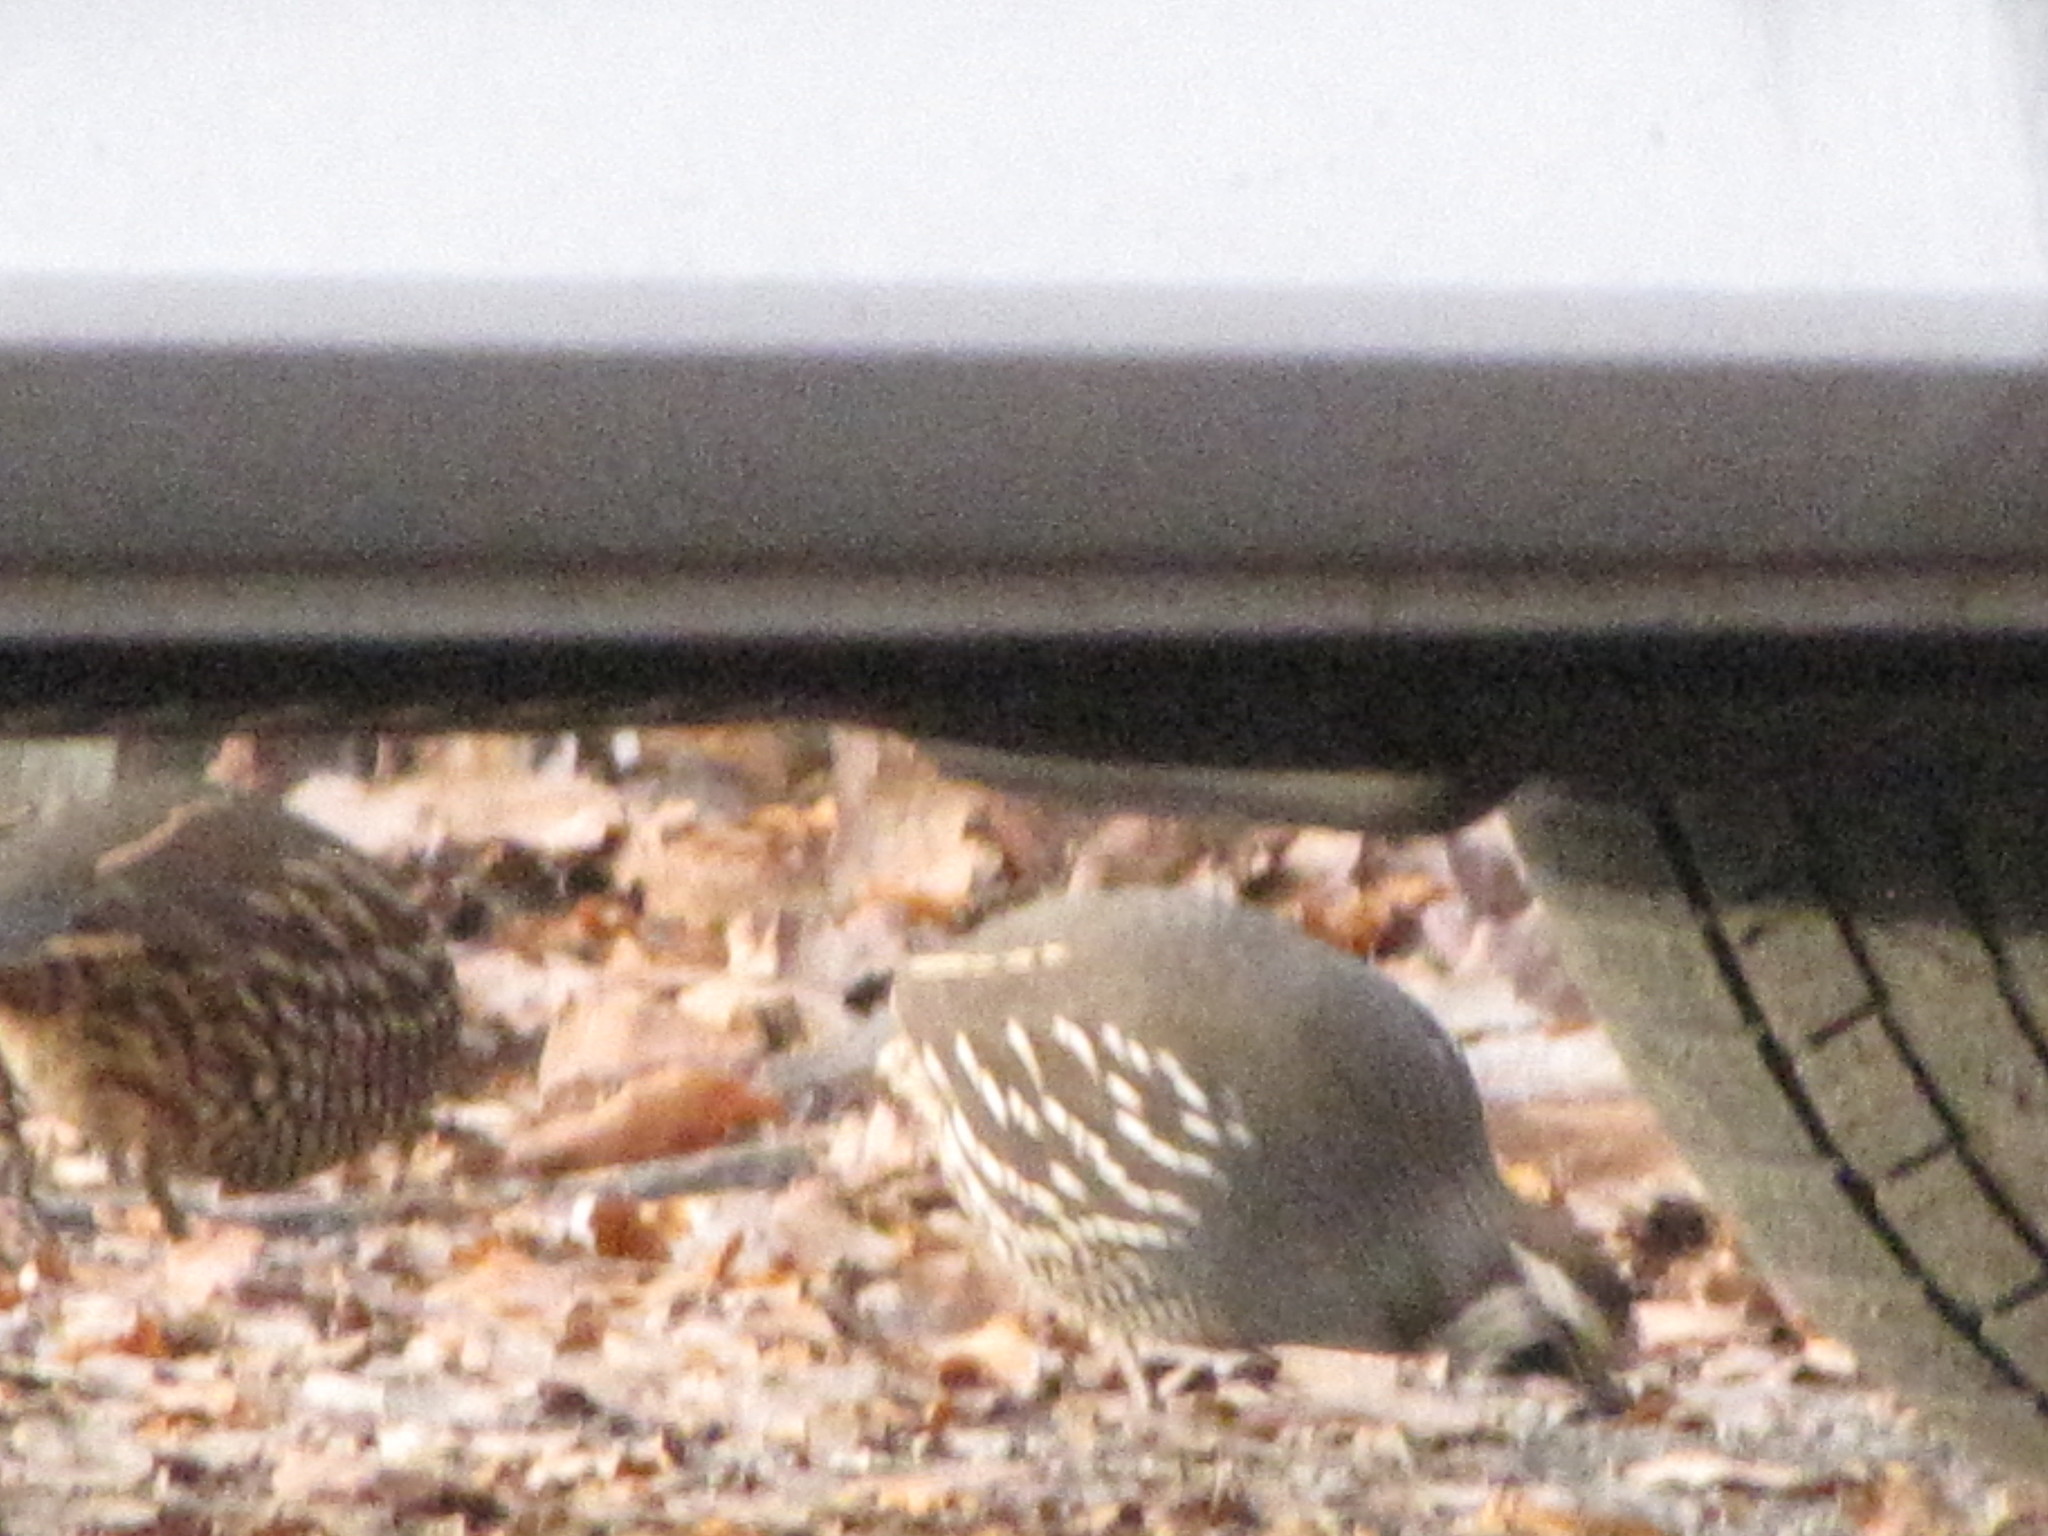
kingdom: Animalia
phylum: Chordata
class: Aves
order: Galliformes
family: Odontophoridae
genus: Callipepla
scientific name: Callipepla californica
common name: California quail
